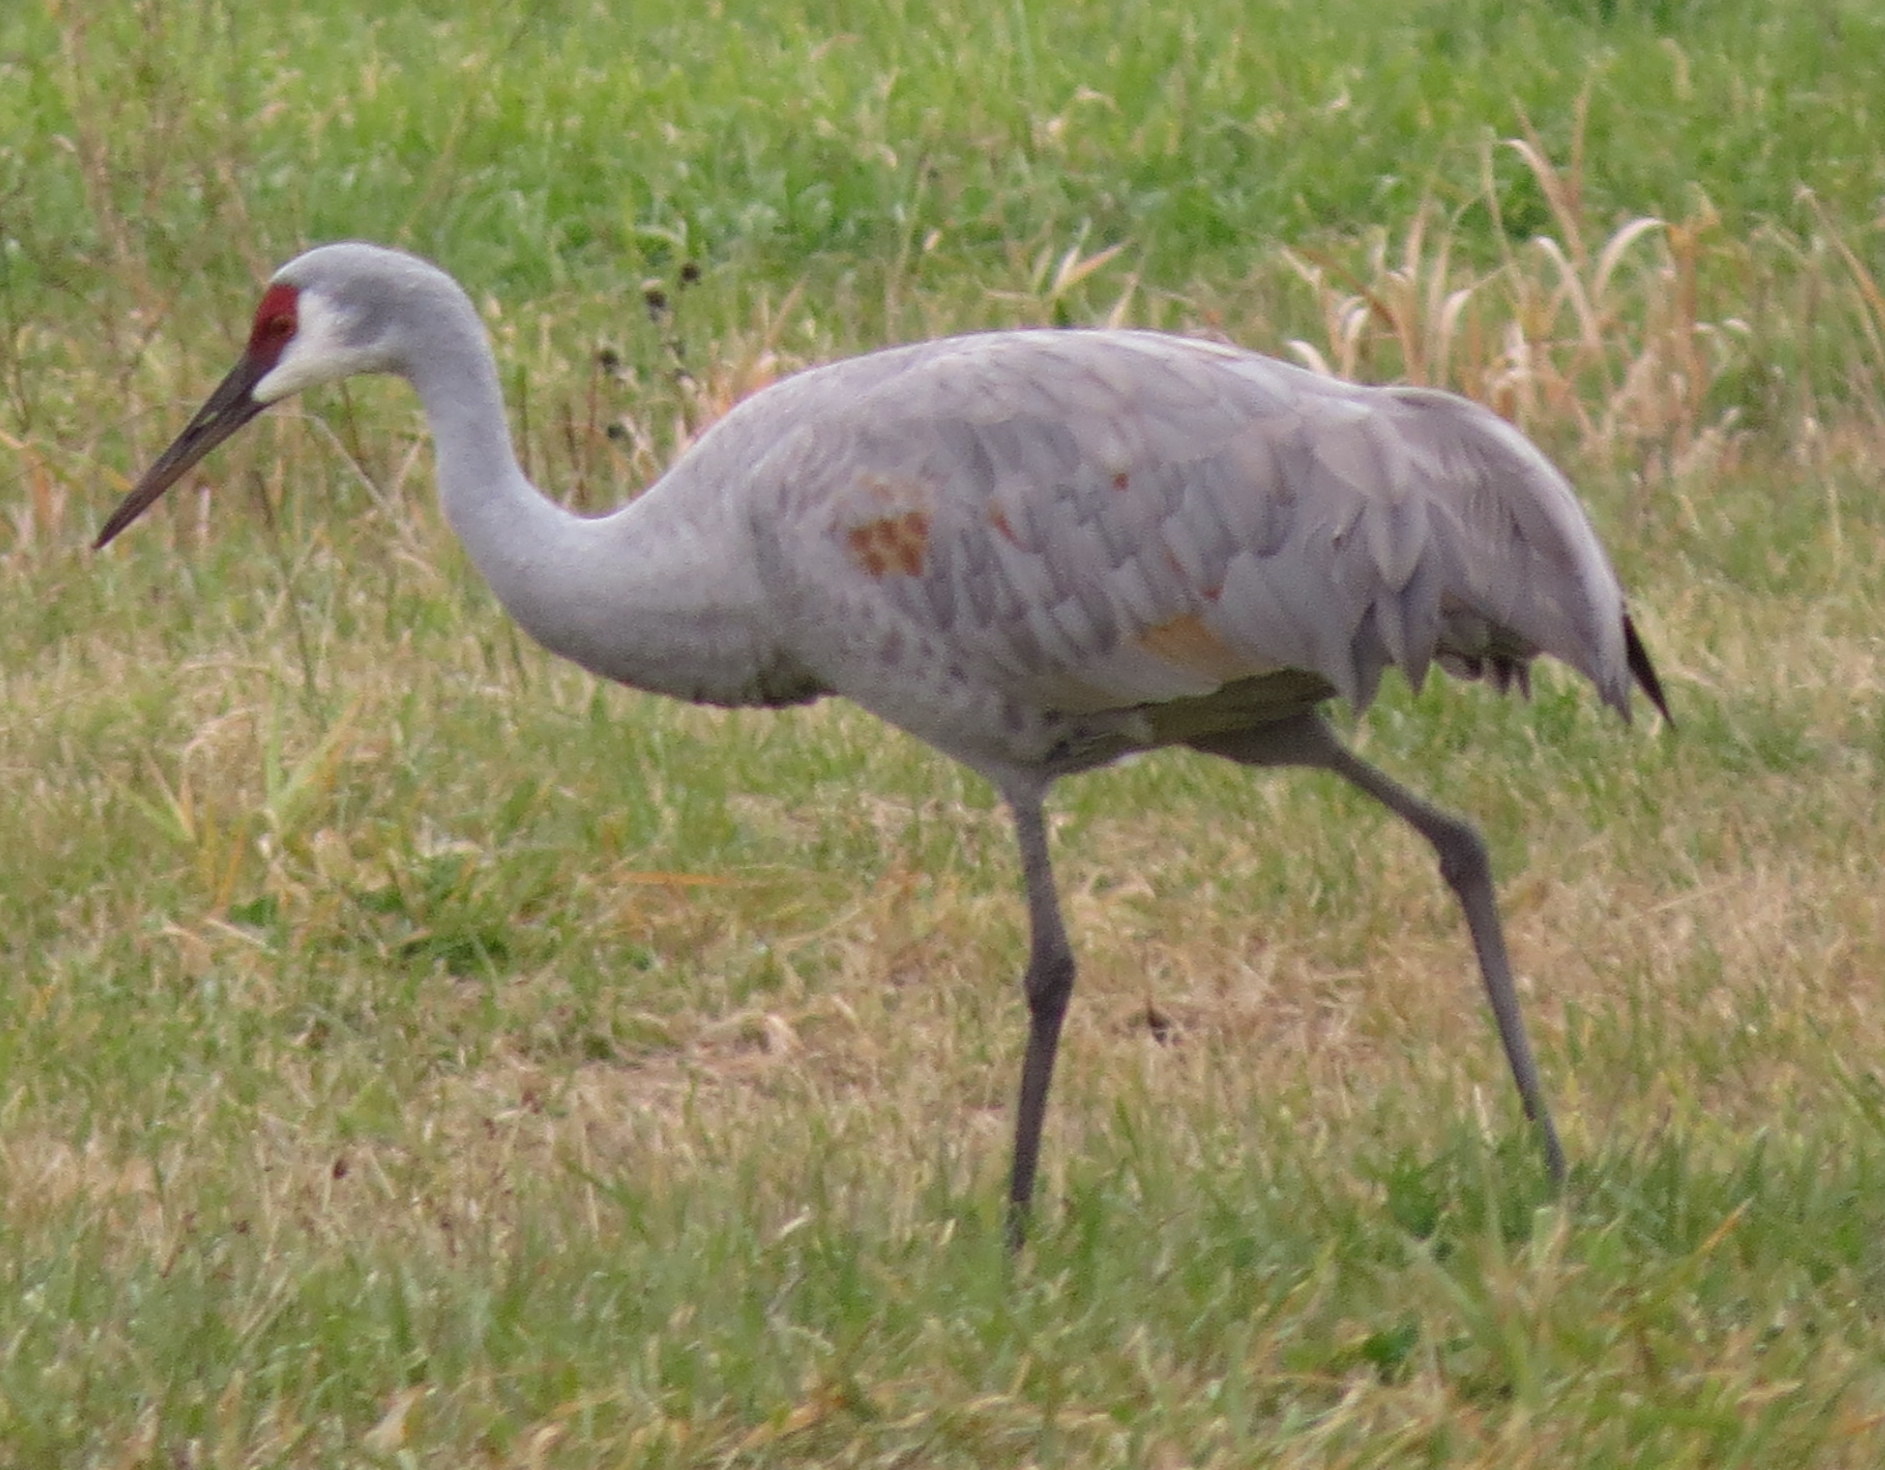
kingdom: Animalia
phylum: Chordata
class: Aves
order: Gruiformes
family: Gruidae
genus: Grus
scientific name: Grus canadensis
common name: Sandhill crane
